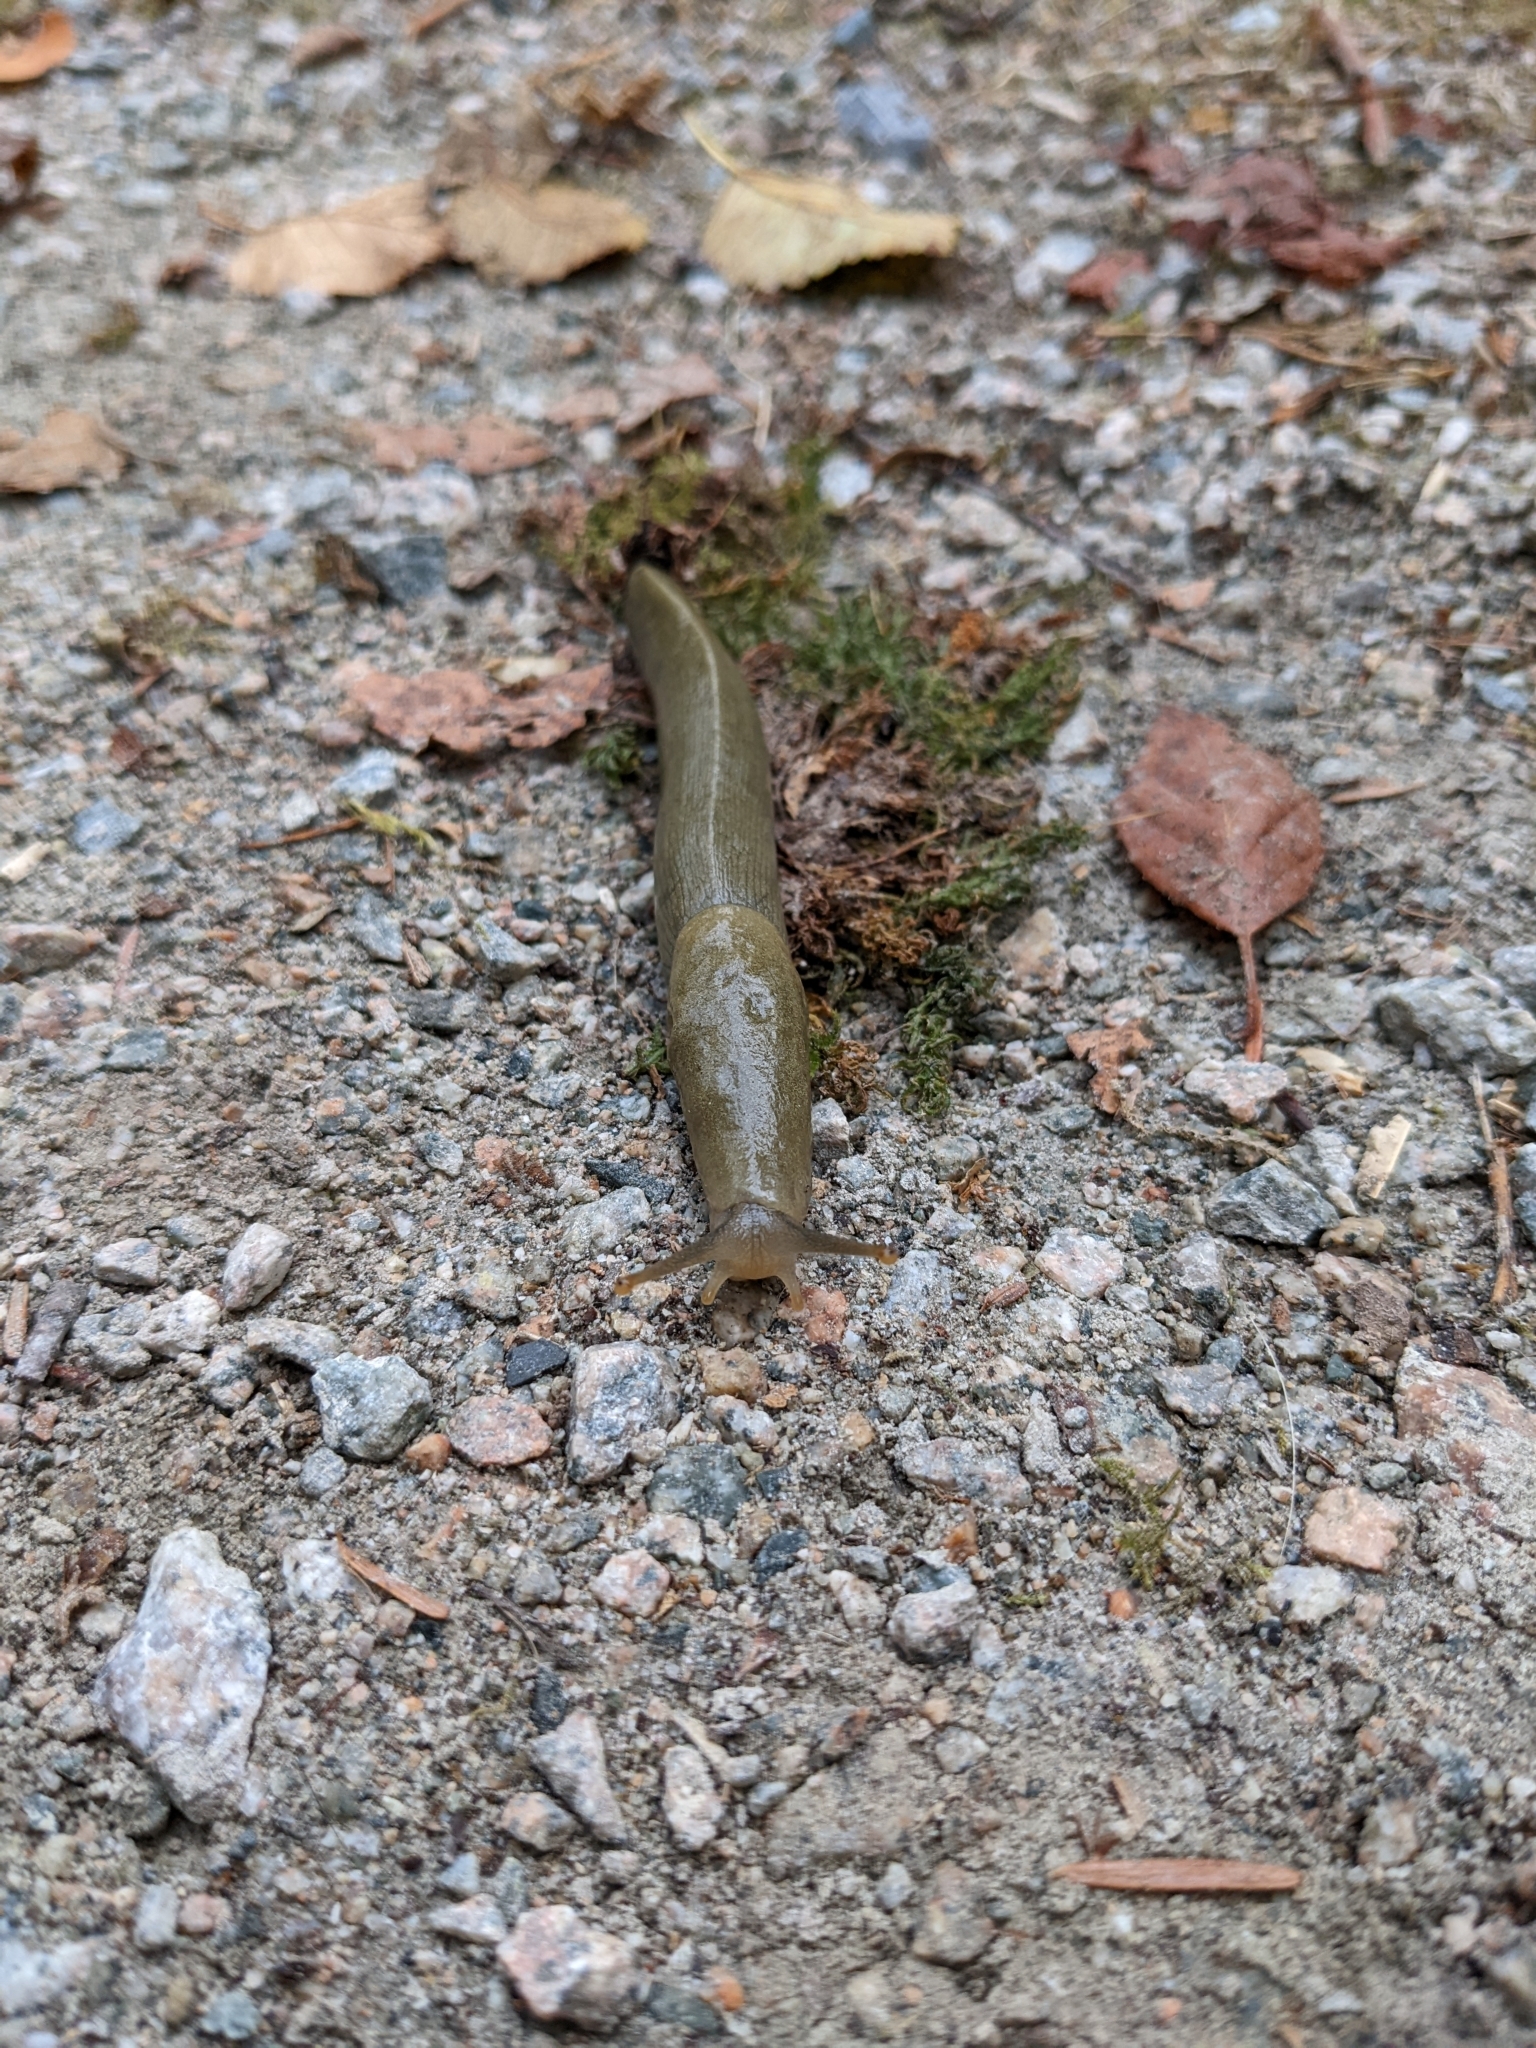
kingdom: Animalia
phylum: Mollusca
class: Gastropoda
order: Stylommatophora
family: Ariolimacidae
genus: Ariolimax
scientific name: Ariolimax columbianus
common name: Pacific banana slug
